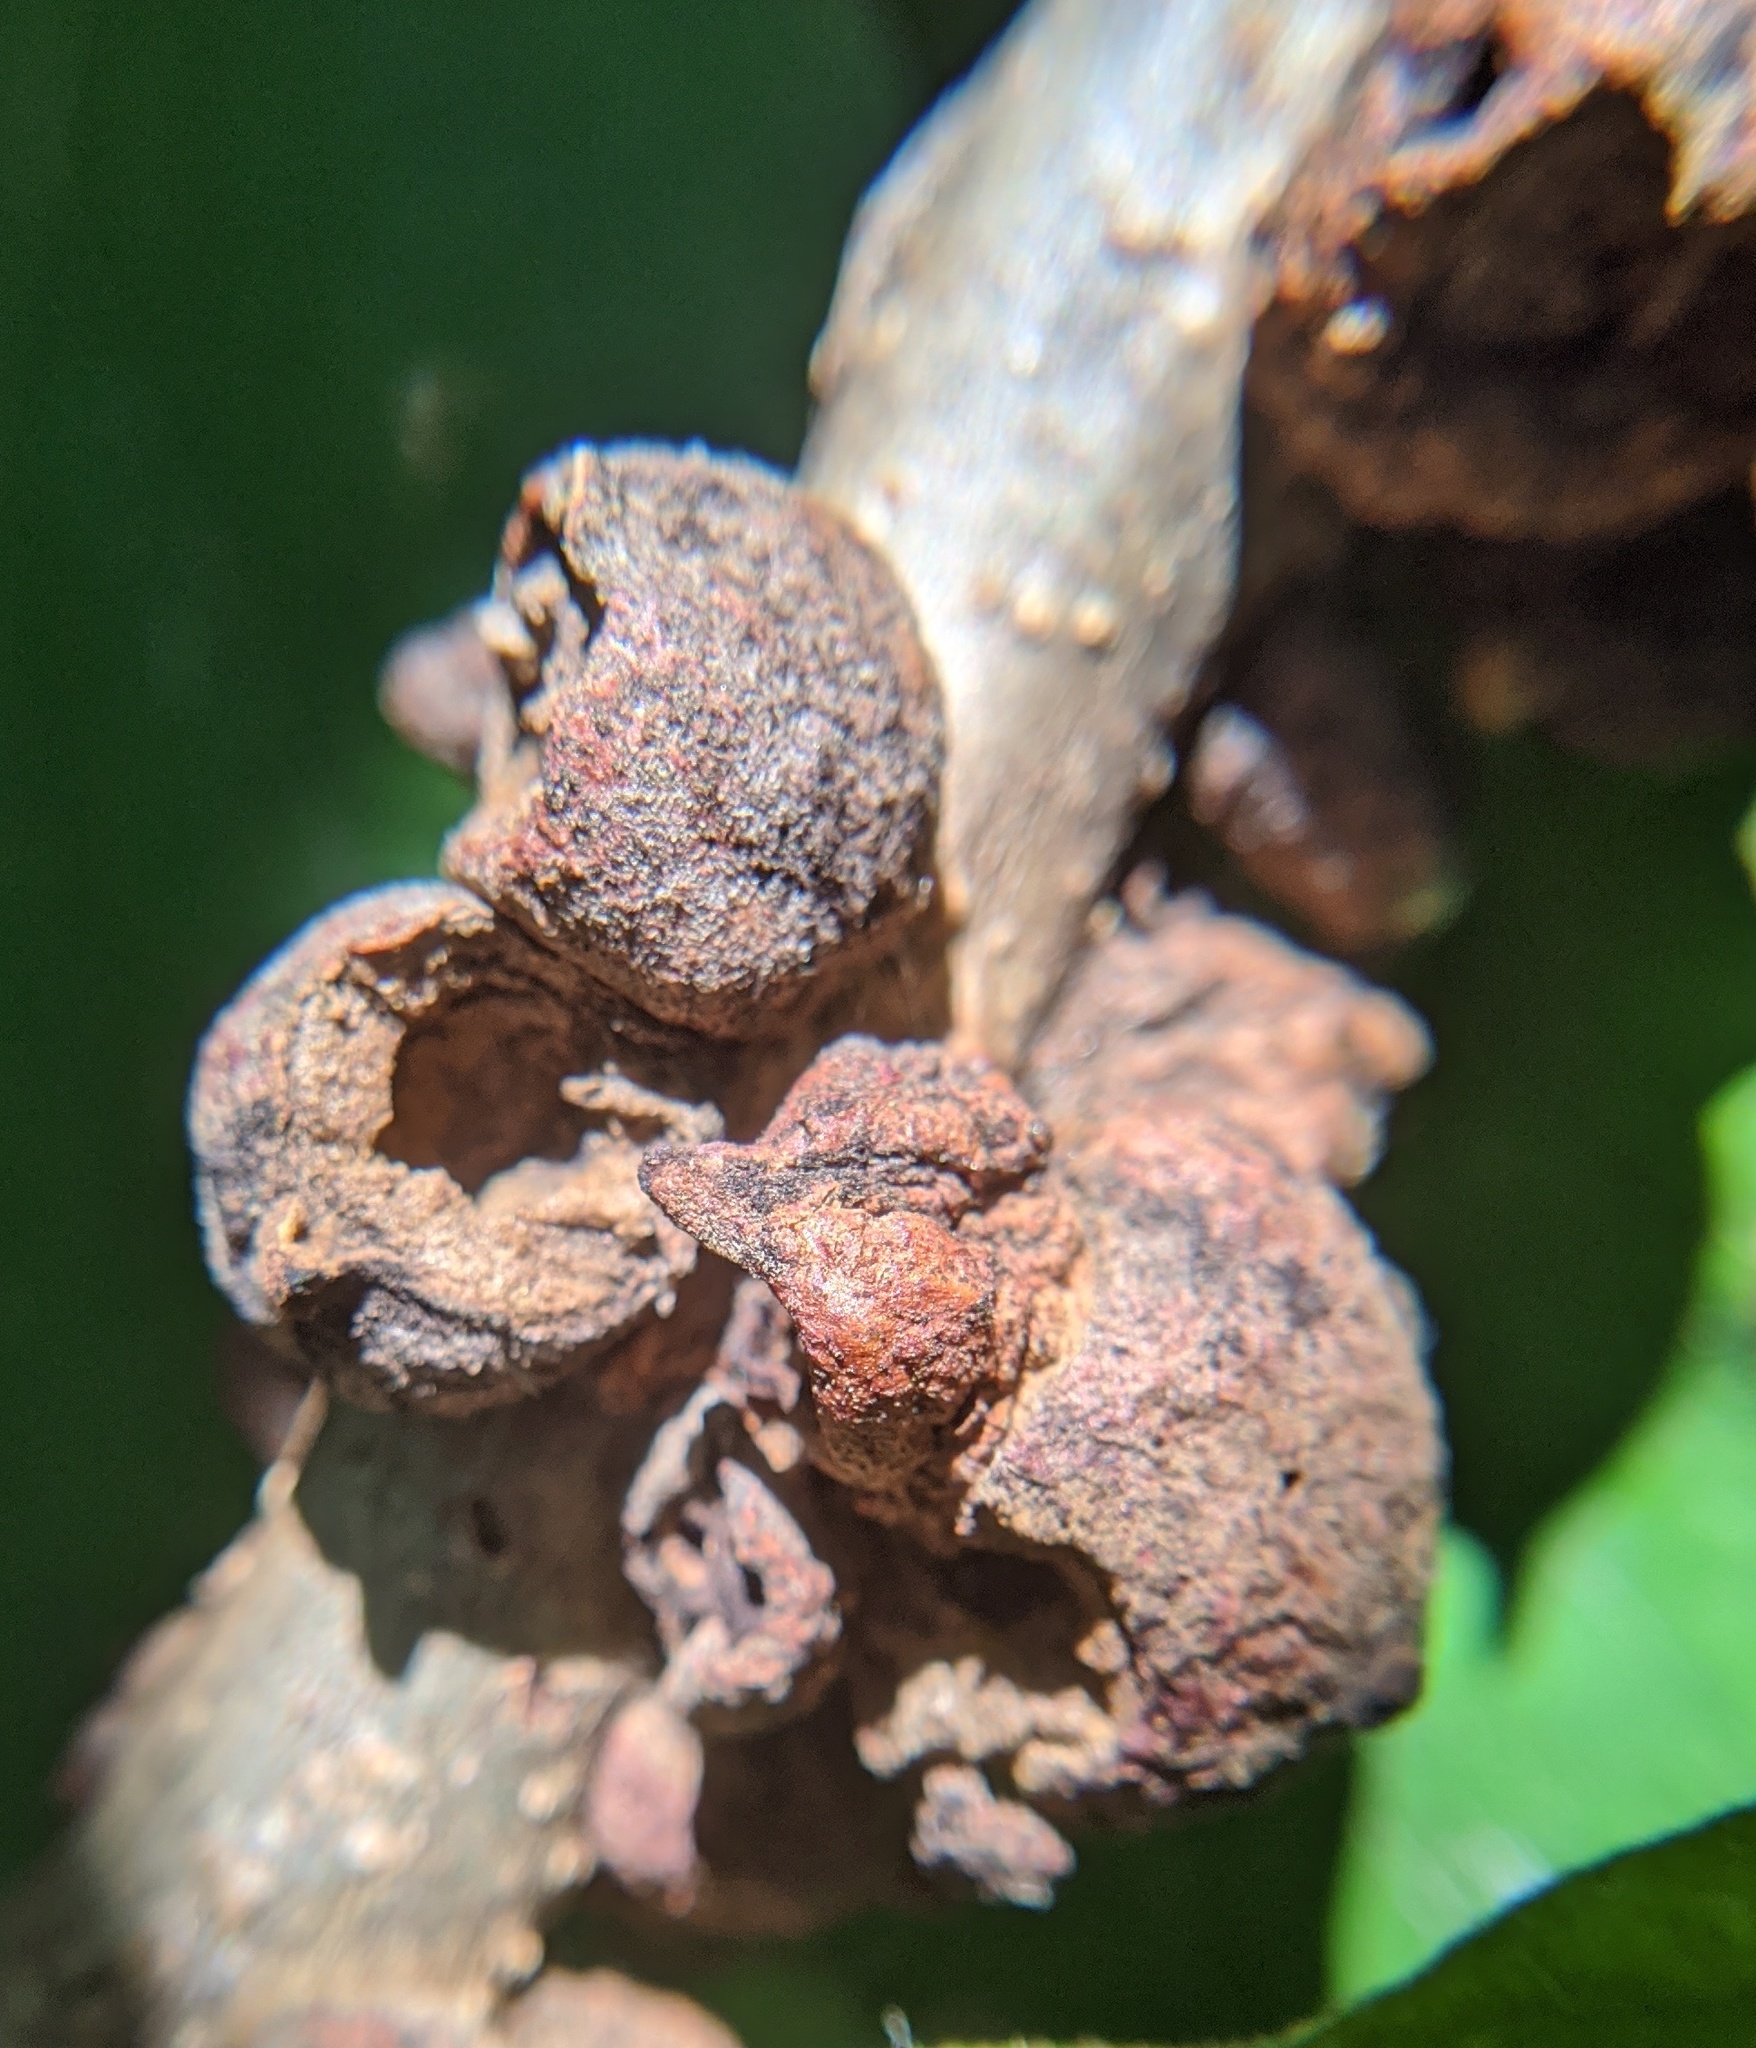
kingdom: Animalia
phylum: Arthropoda
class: Insecta
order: Hymenoptera
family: Cynipidae
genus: Disholcaspis
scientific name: Disholcaspis
